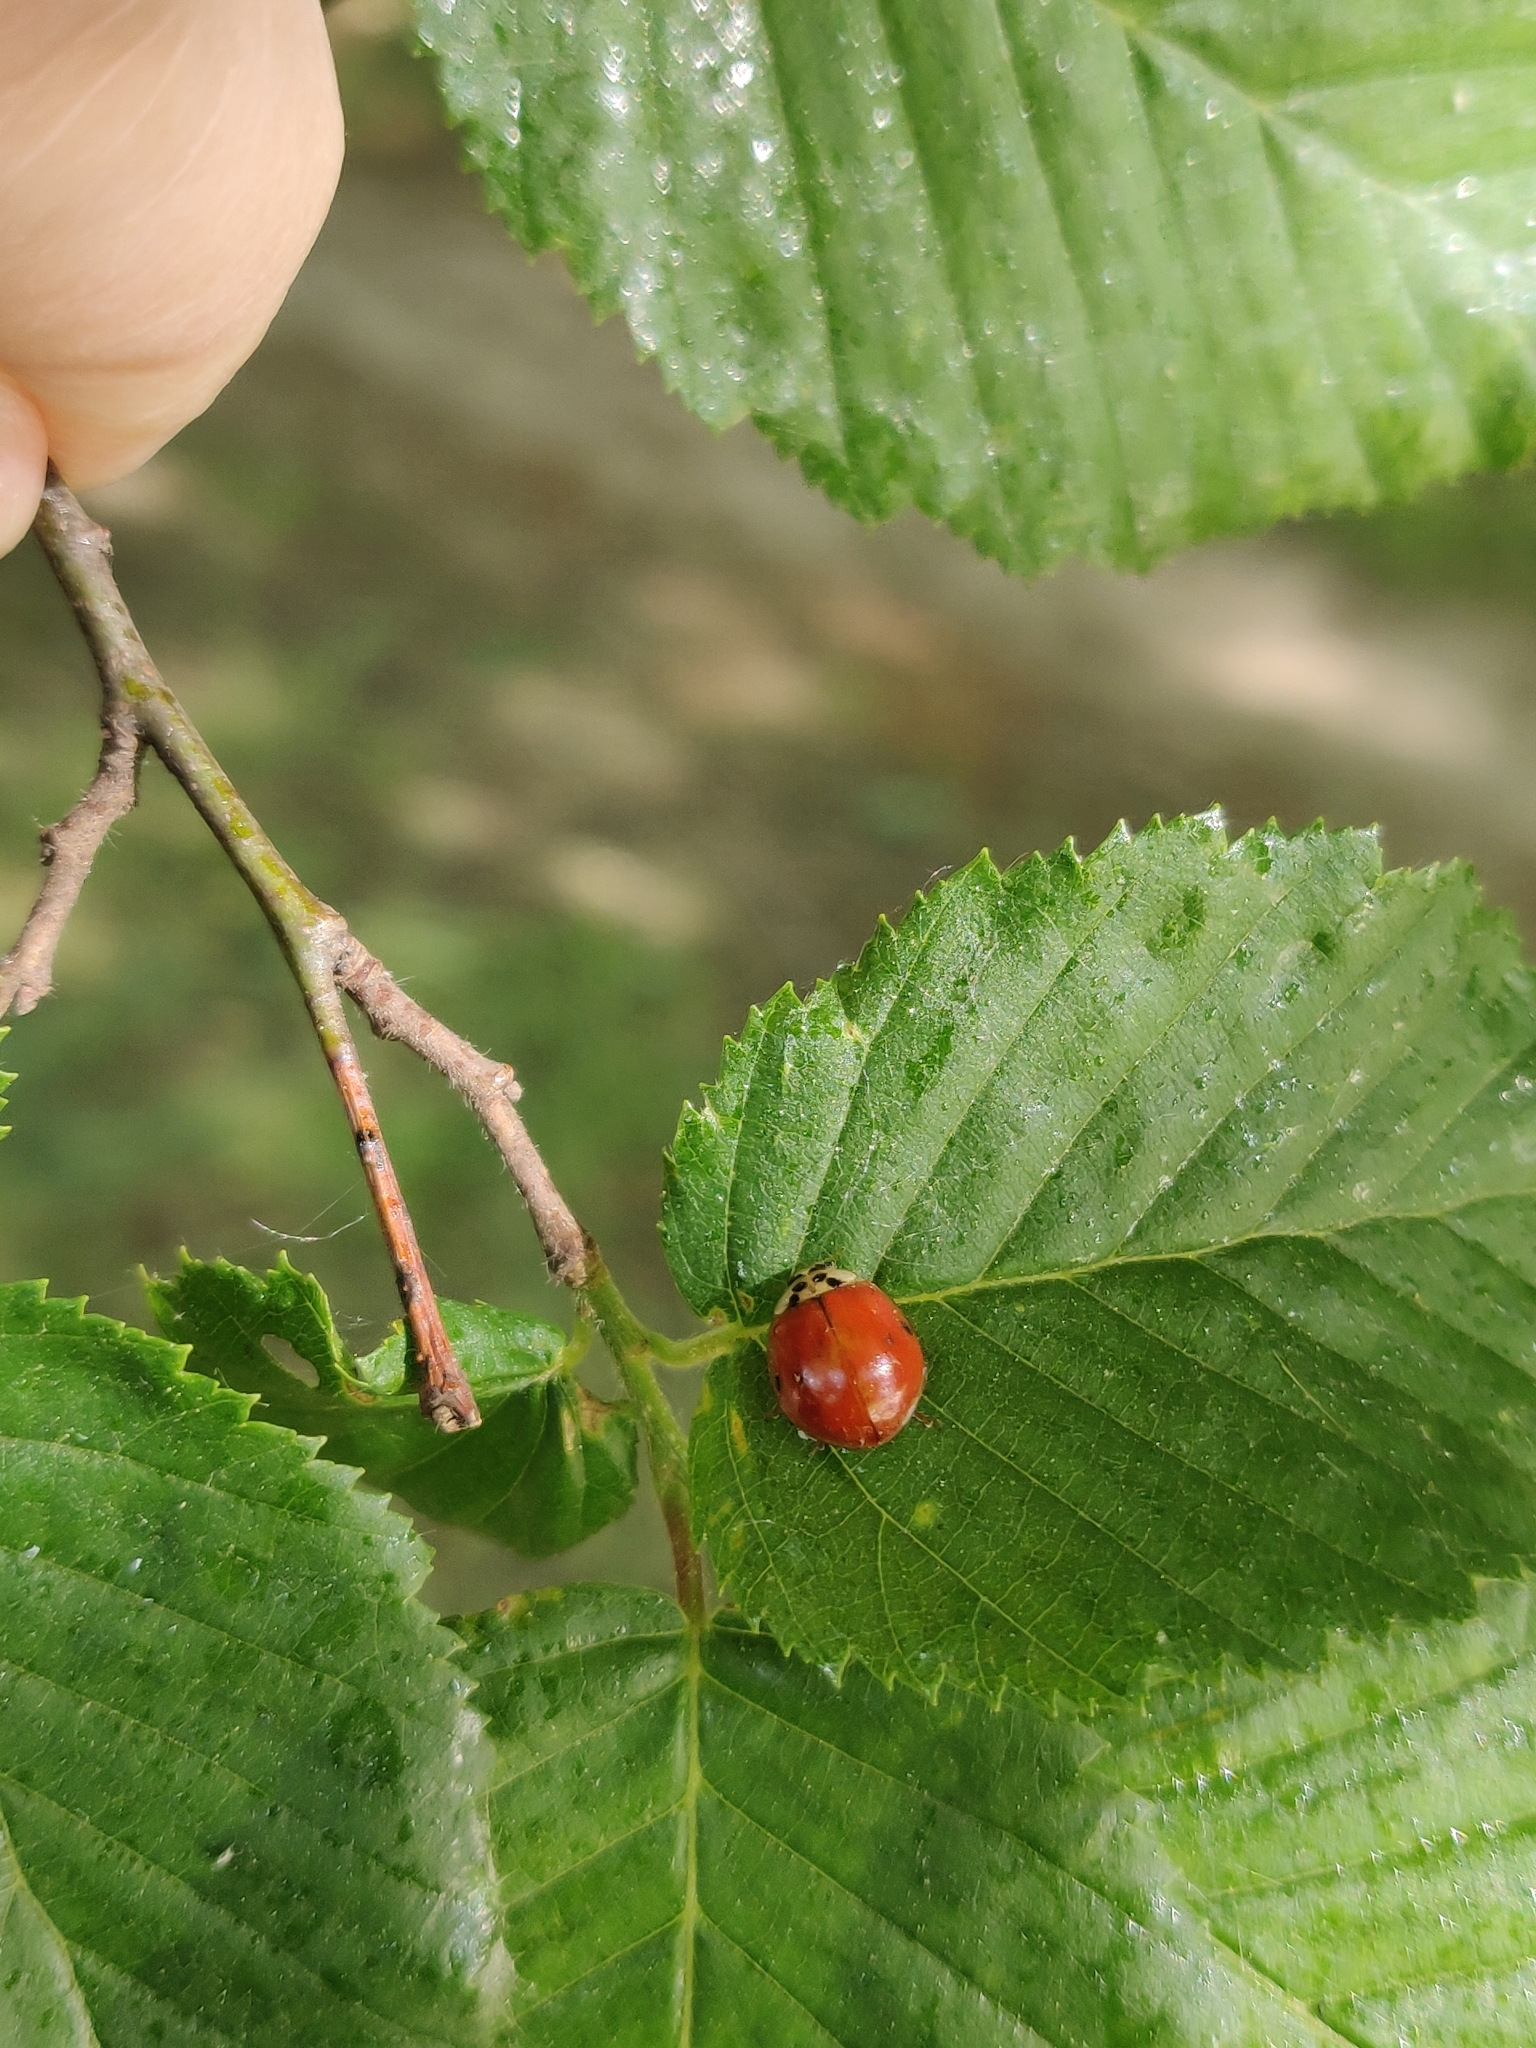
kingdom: Animalia
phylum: Arthropoda
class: Insecta
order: Coleoptera
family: Coccinellidae
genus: Harmonia
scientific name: Harmonia axyridis
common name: Harlequin ladybird
